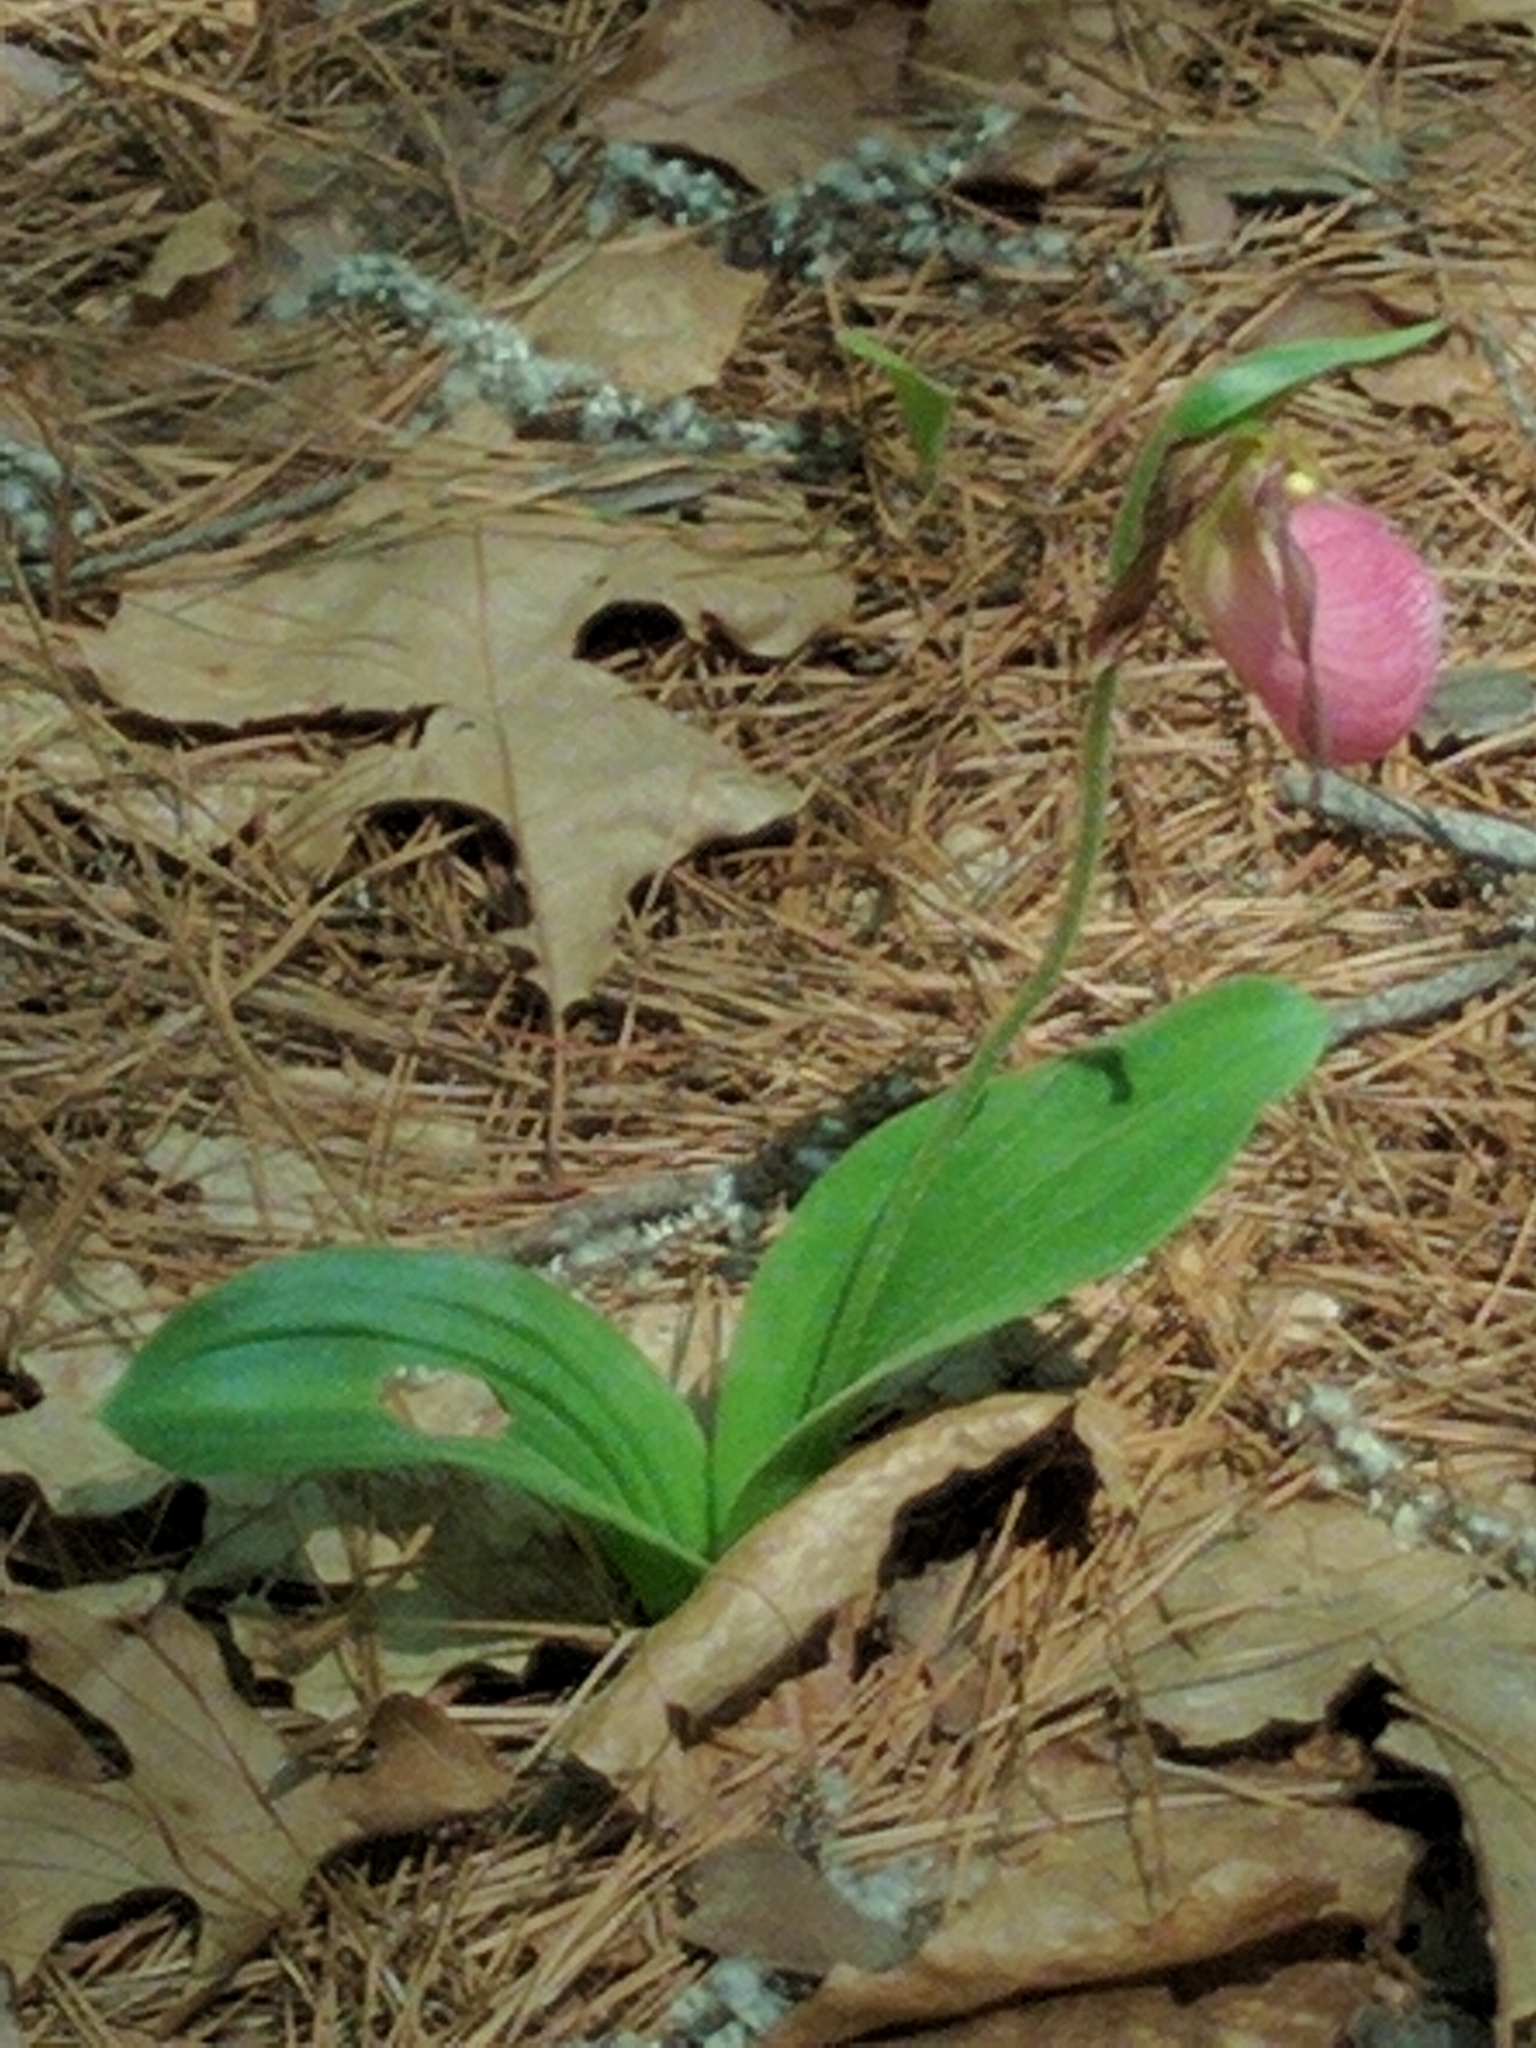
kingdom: Plantae
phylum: Tracheophyta
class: Liliopsida
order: Asparagales
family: Orchidaceae
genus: Cypripedium
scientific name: Cypripedium acaule
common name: Pink lady's-slipper
